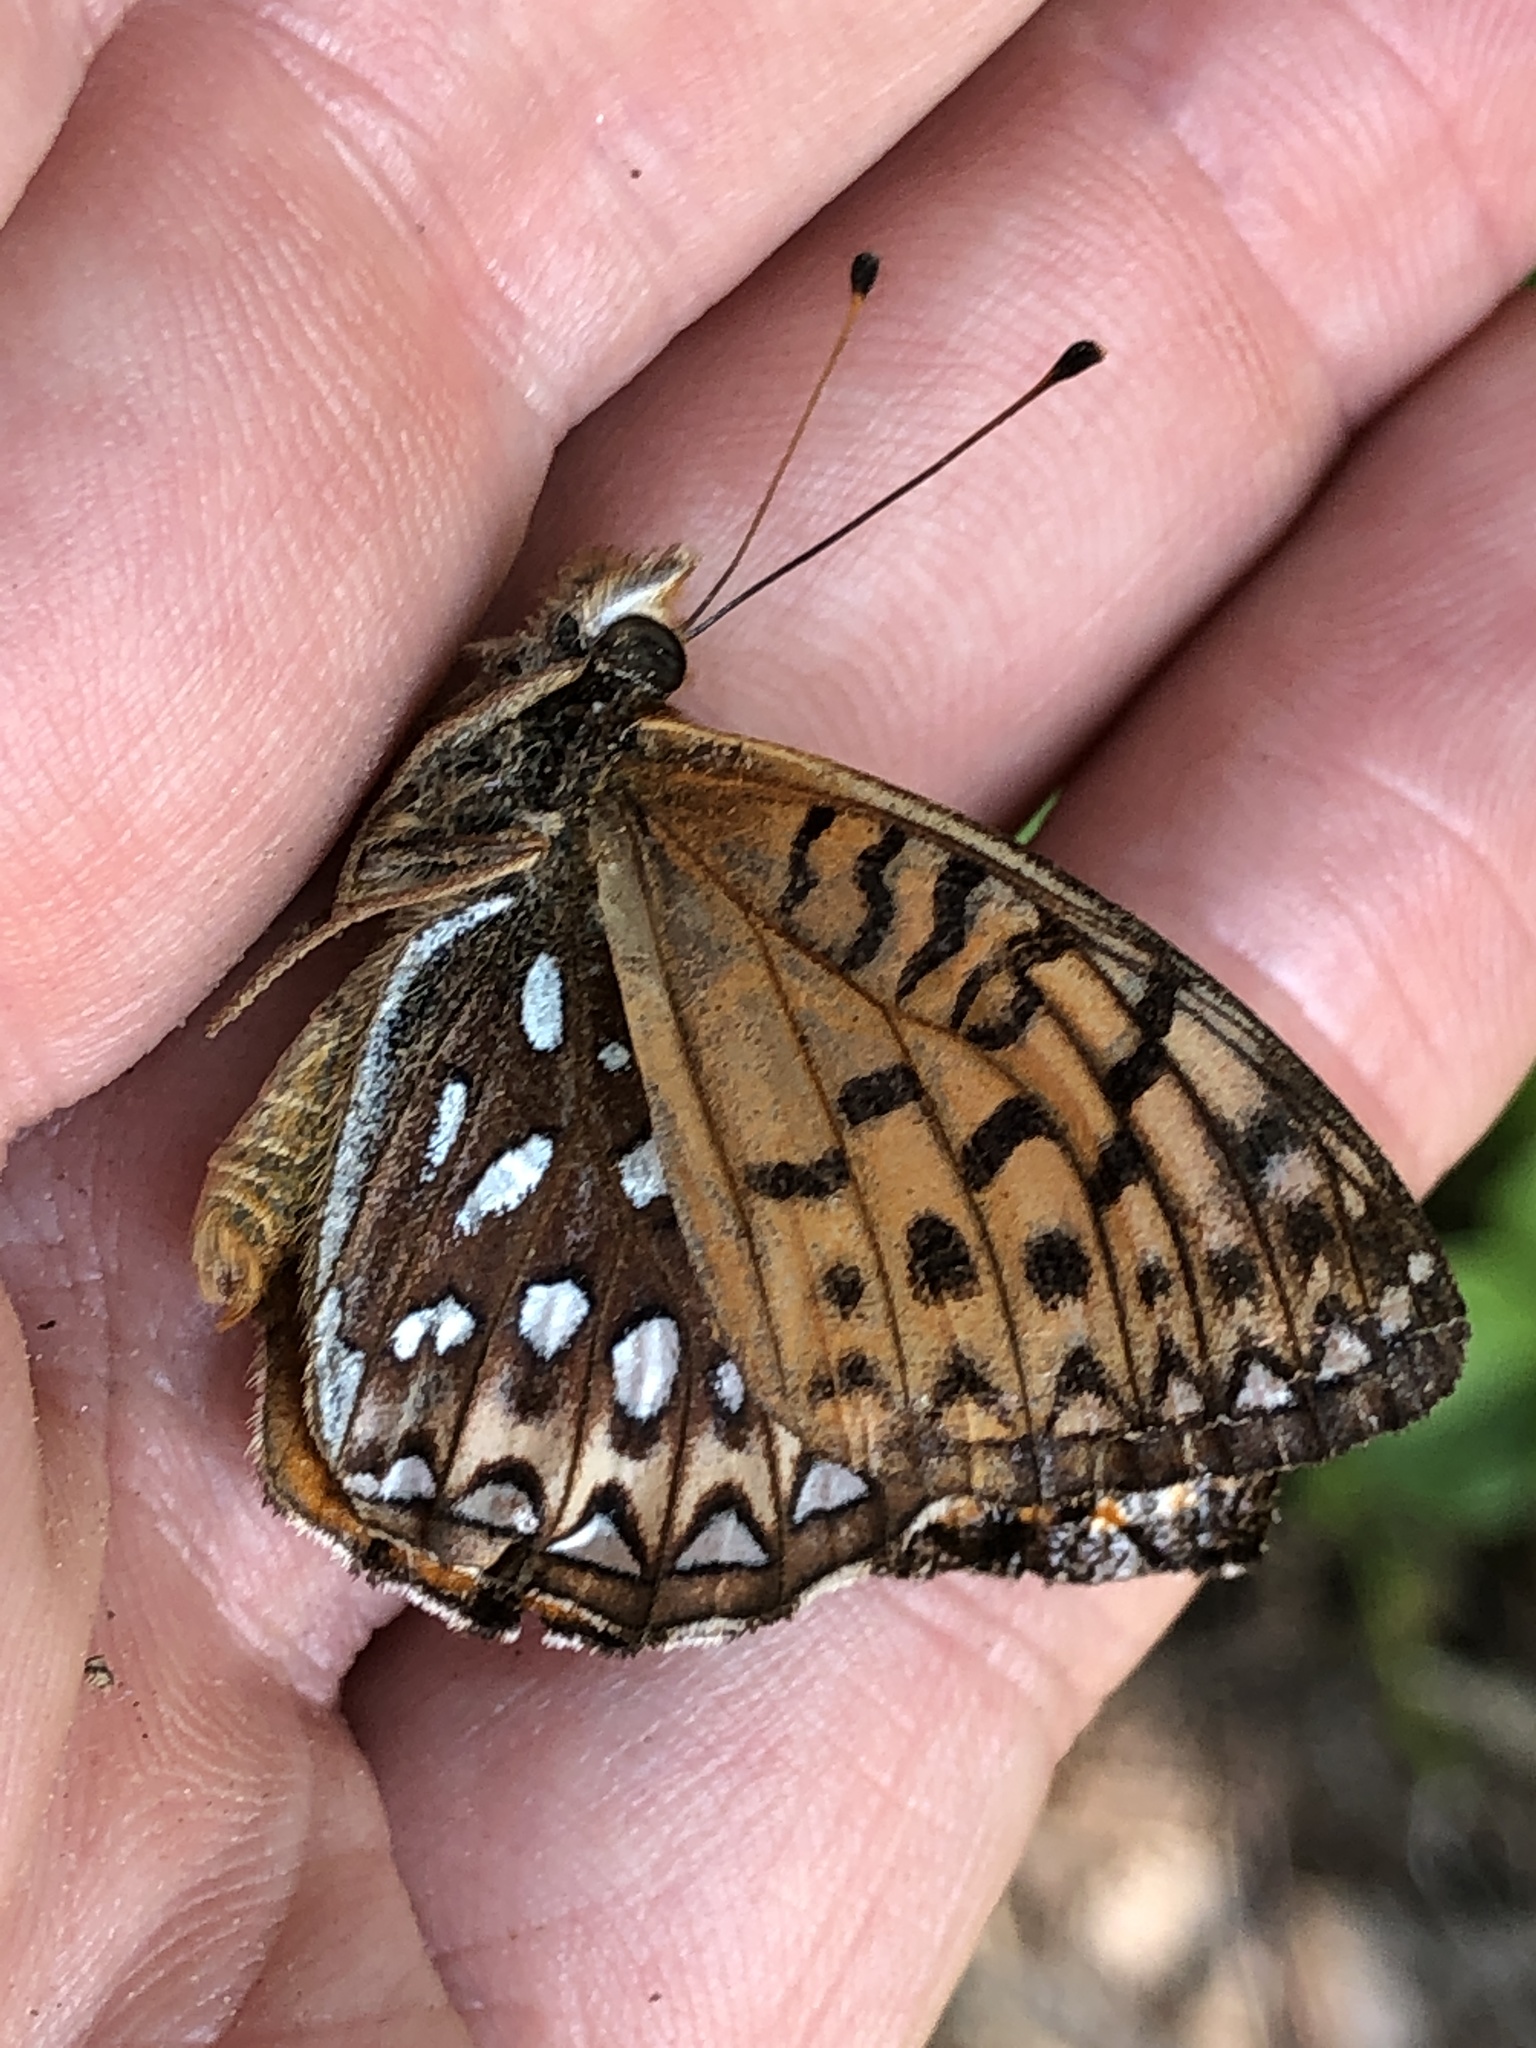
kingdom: Animalia
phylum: Arthropoda
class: Insecta
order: Lepidoptera
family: Nymphalidae
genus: Speyeria
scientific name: Speyeria atlantis
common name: Atlantis fritillary
